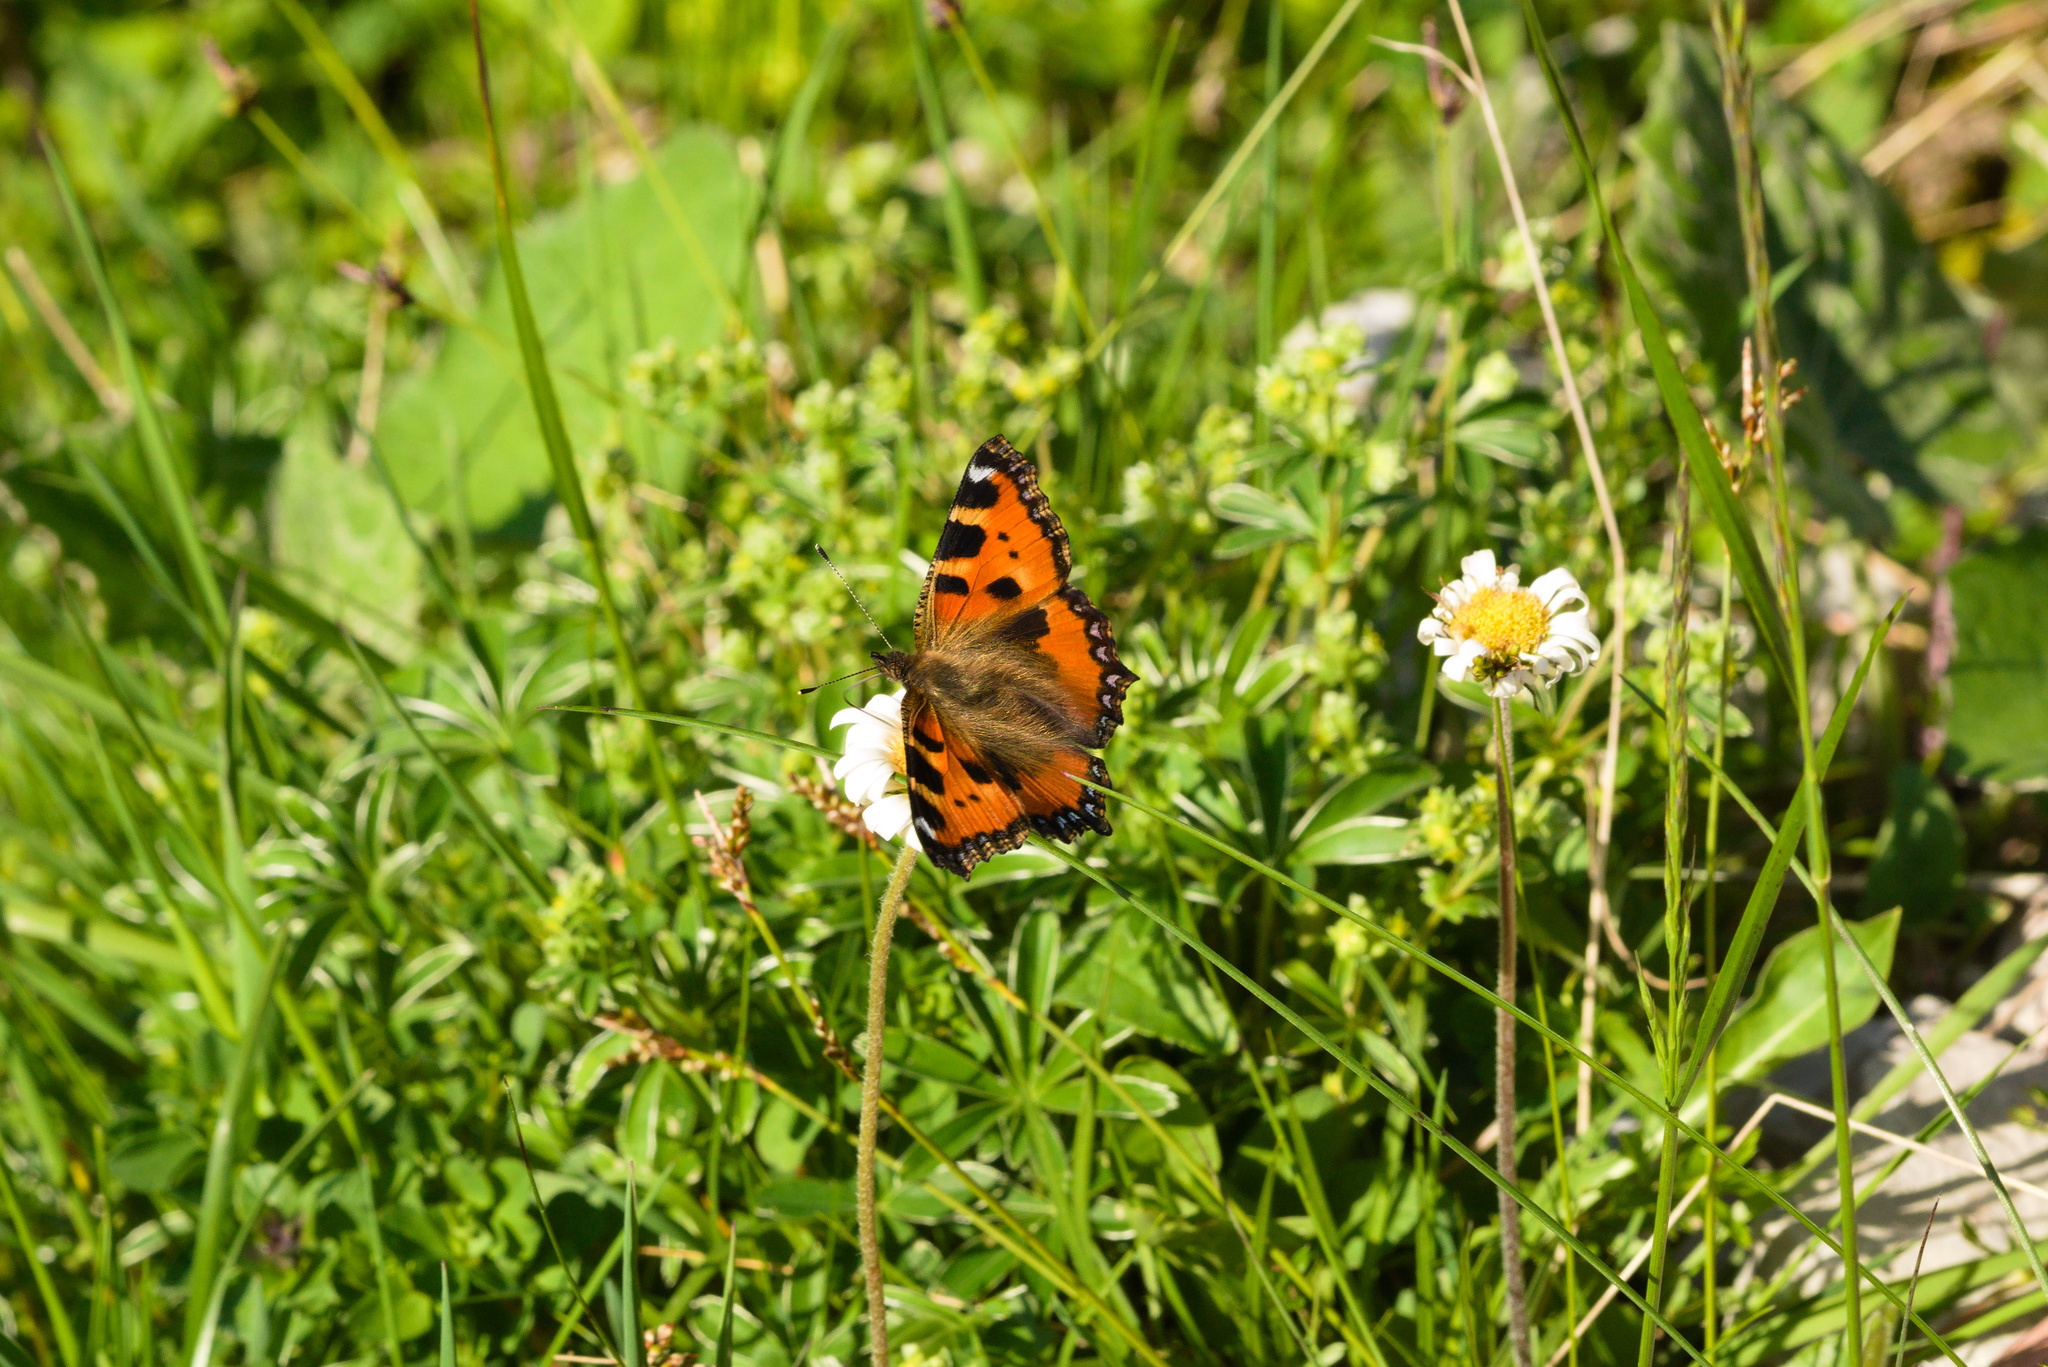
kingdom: Animalia
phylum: Arthropoda
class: Insecta
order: Lepidoptera
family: Nymphalidae
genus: Aglais
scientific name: Aglais urticae
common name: Small tortoiseshell
